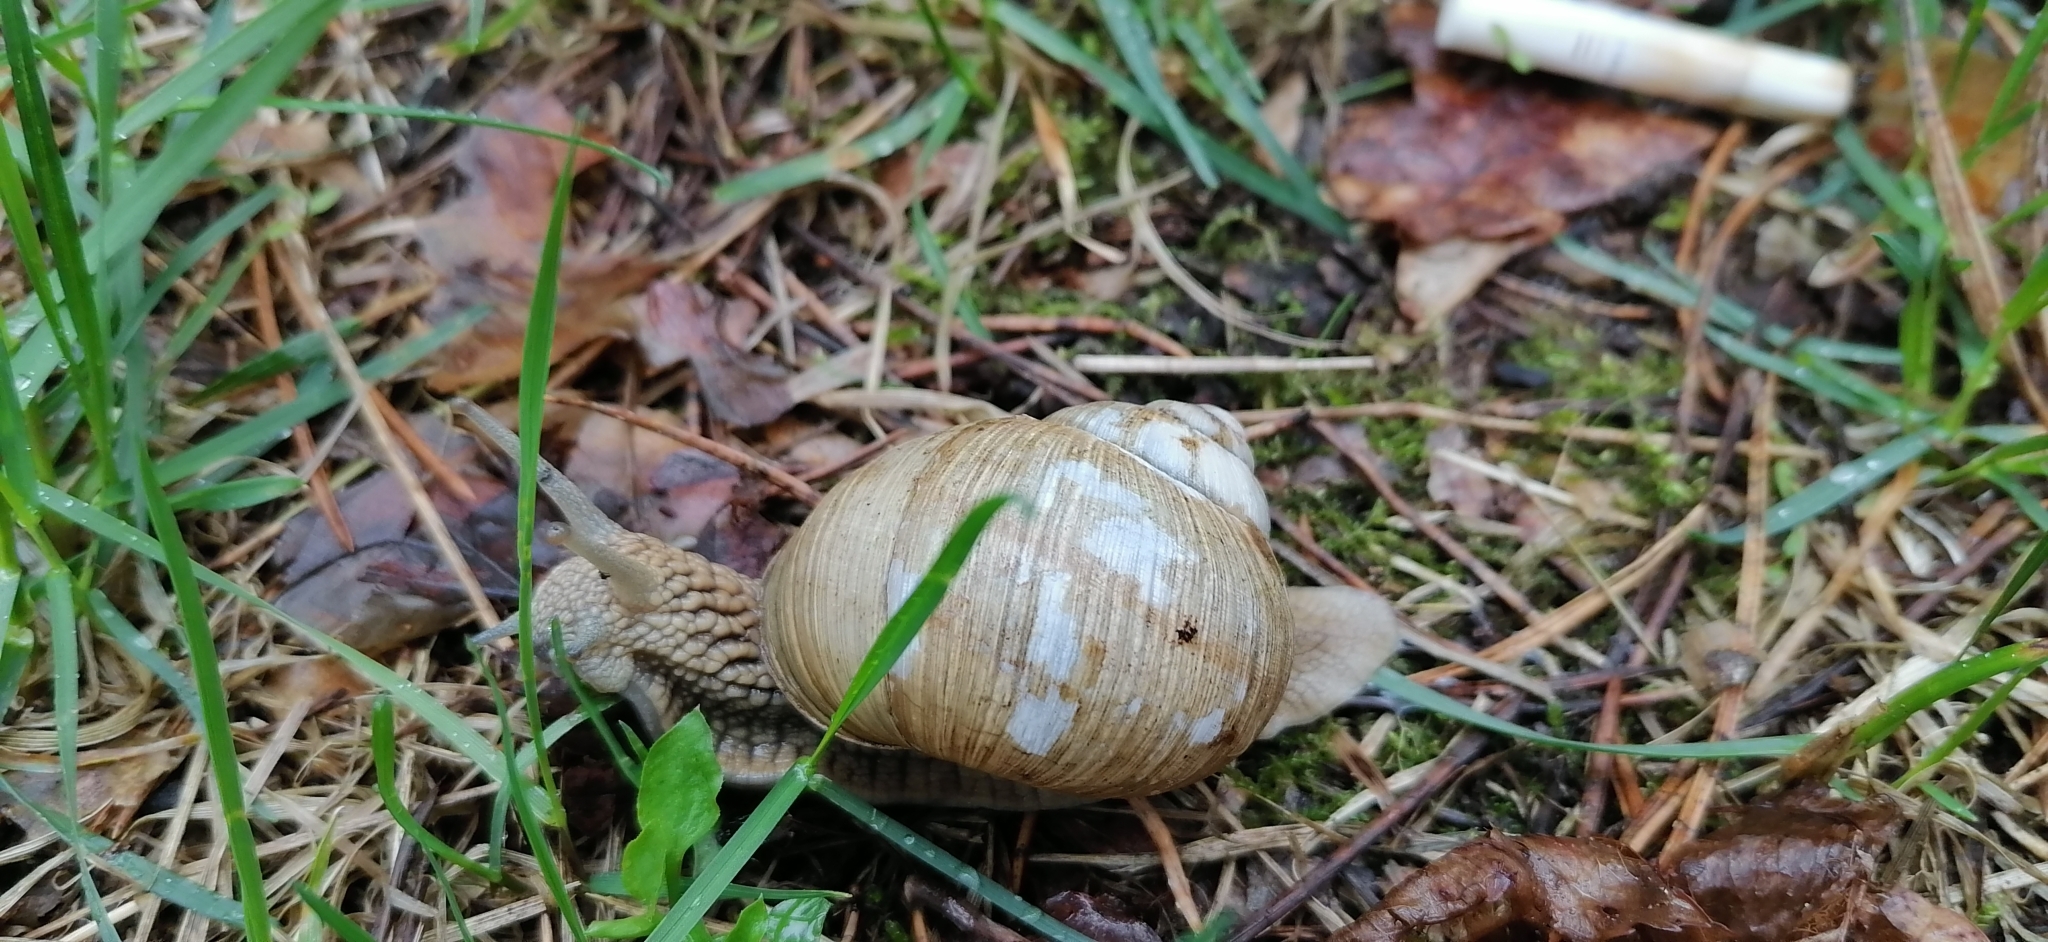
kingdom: Animalia
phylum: Mollusca
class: Gastropoda
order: Stylommatophora
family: Helicidae
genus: Helix
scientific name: Helix pomatia
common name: Roman snail
